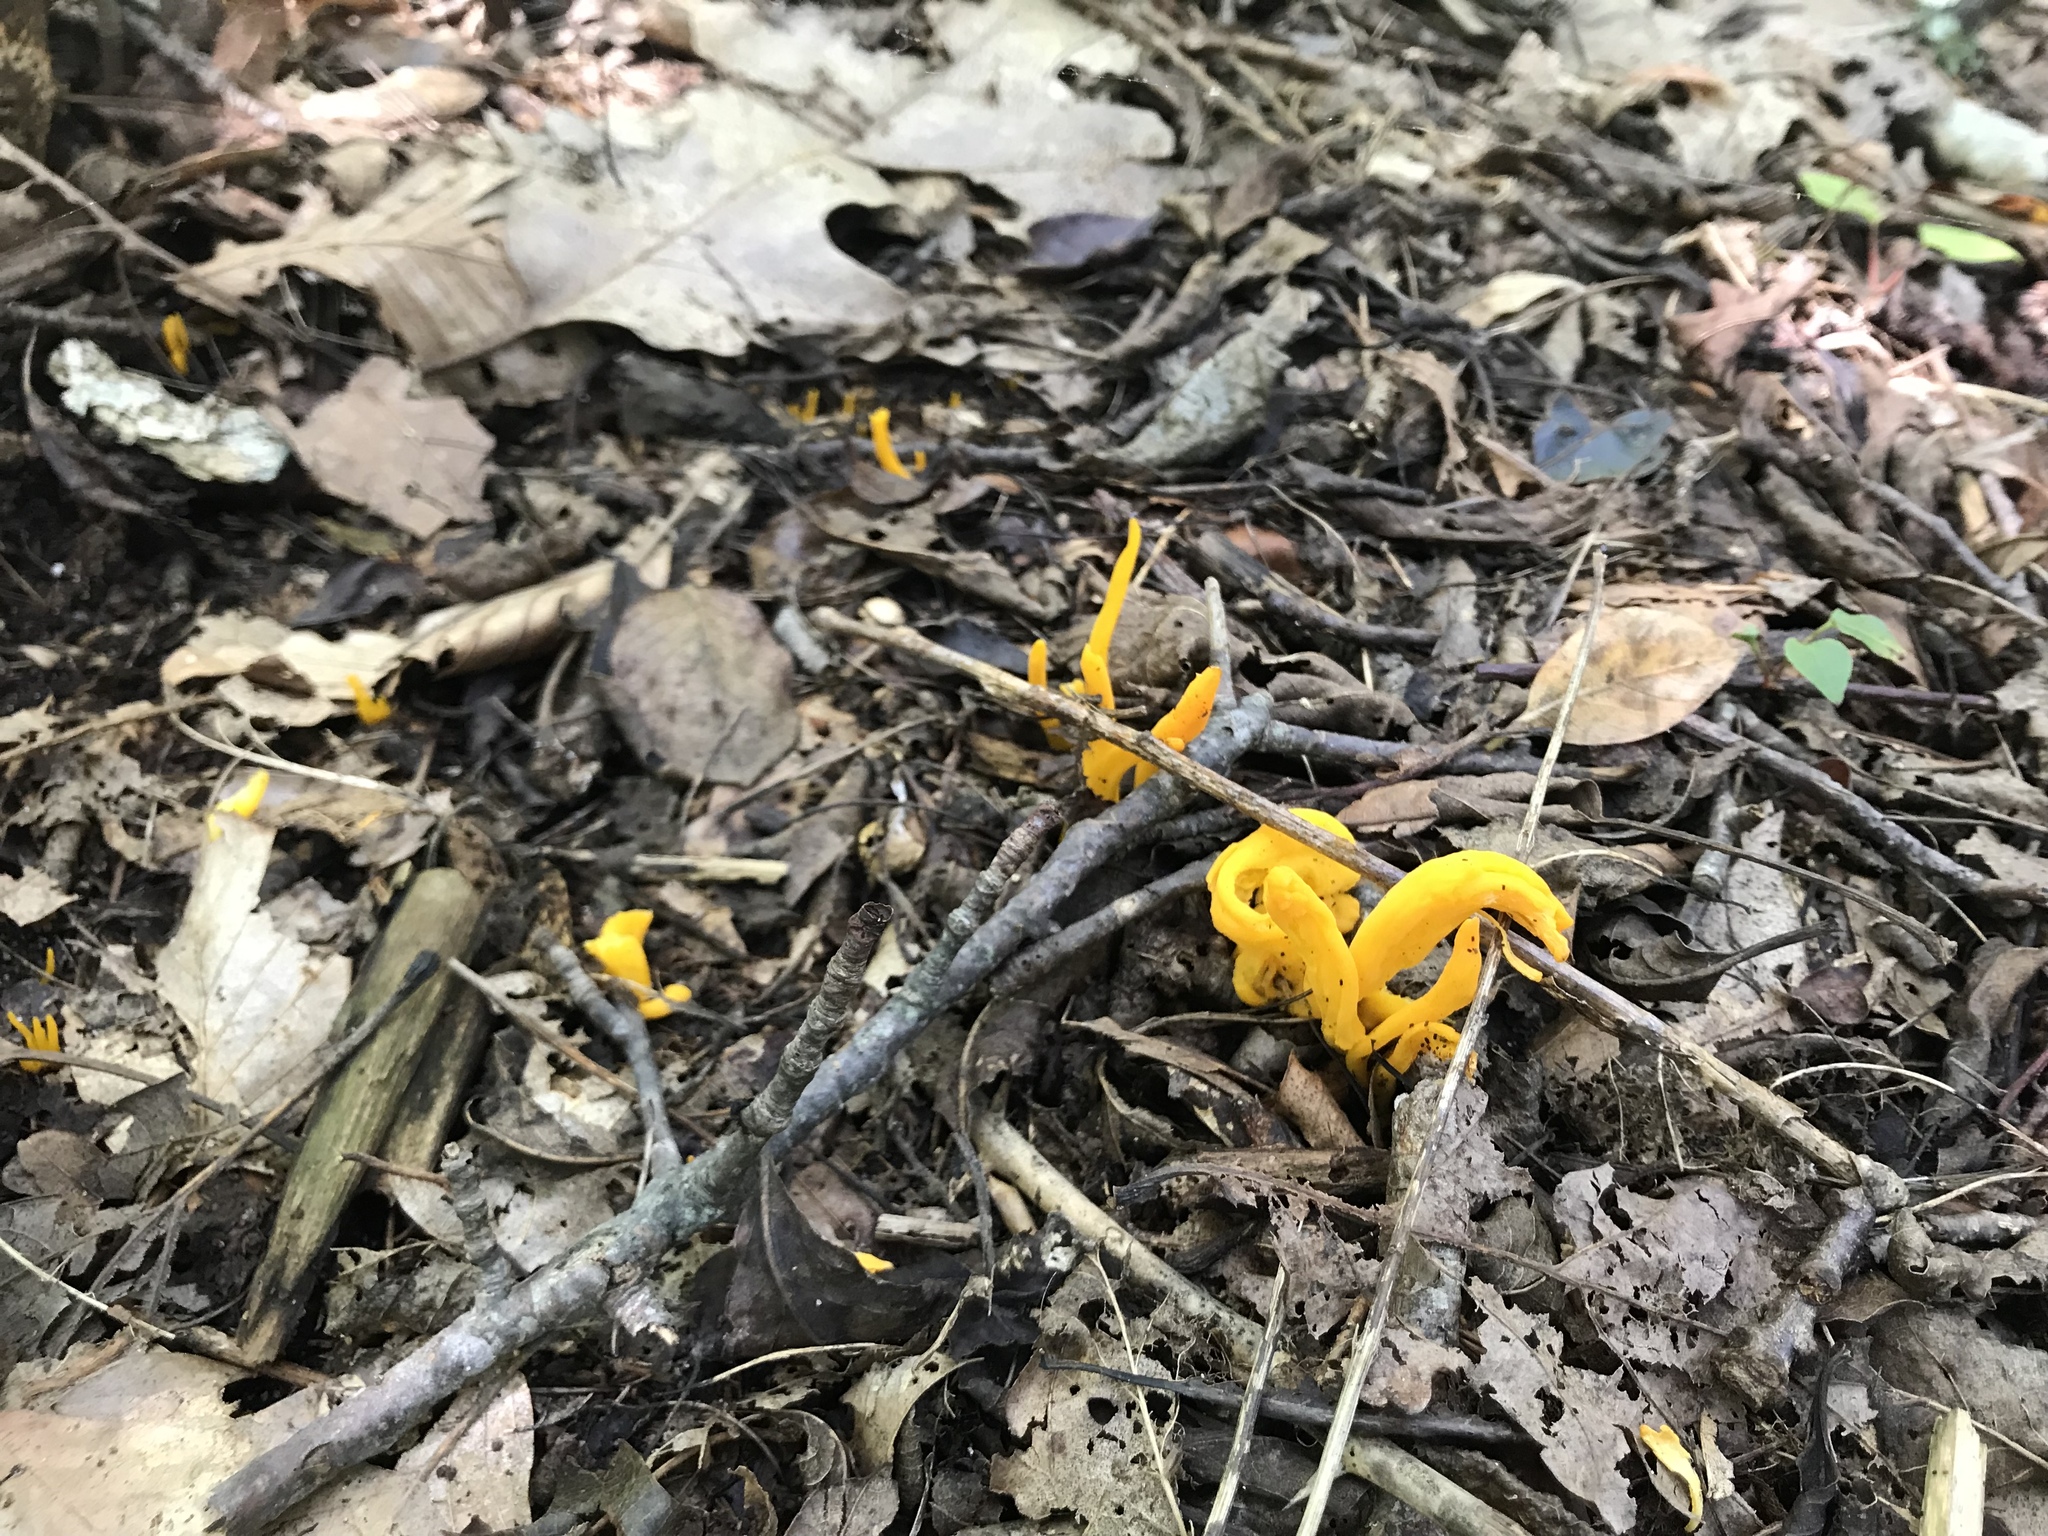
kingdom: Fungi
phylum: Basidiomycota
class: Agaricomycetes
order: Agaricales
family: Clavariaceae
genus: Clavulinopsis
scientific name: Clavulinopsis fusiformis
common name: Golden spindles
